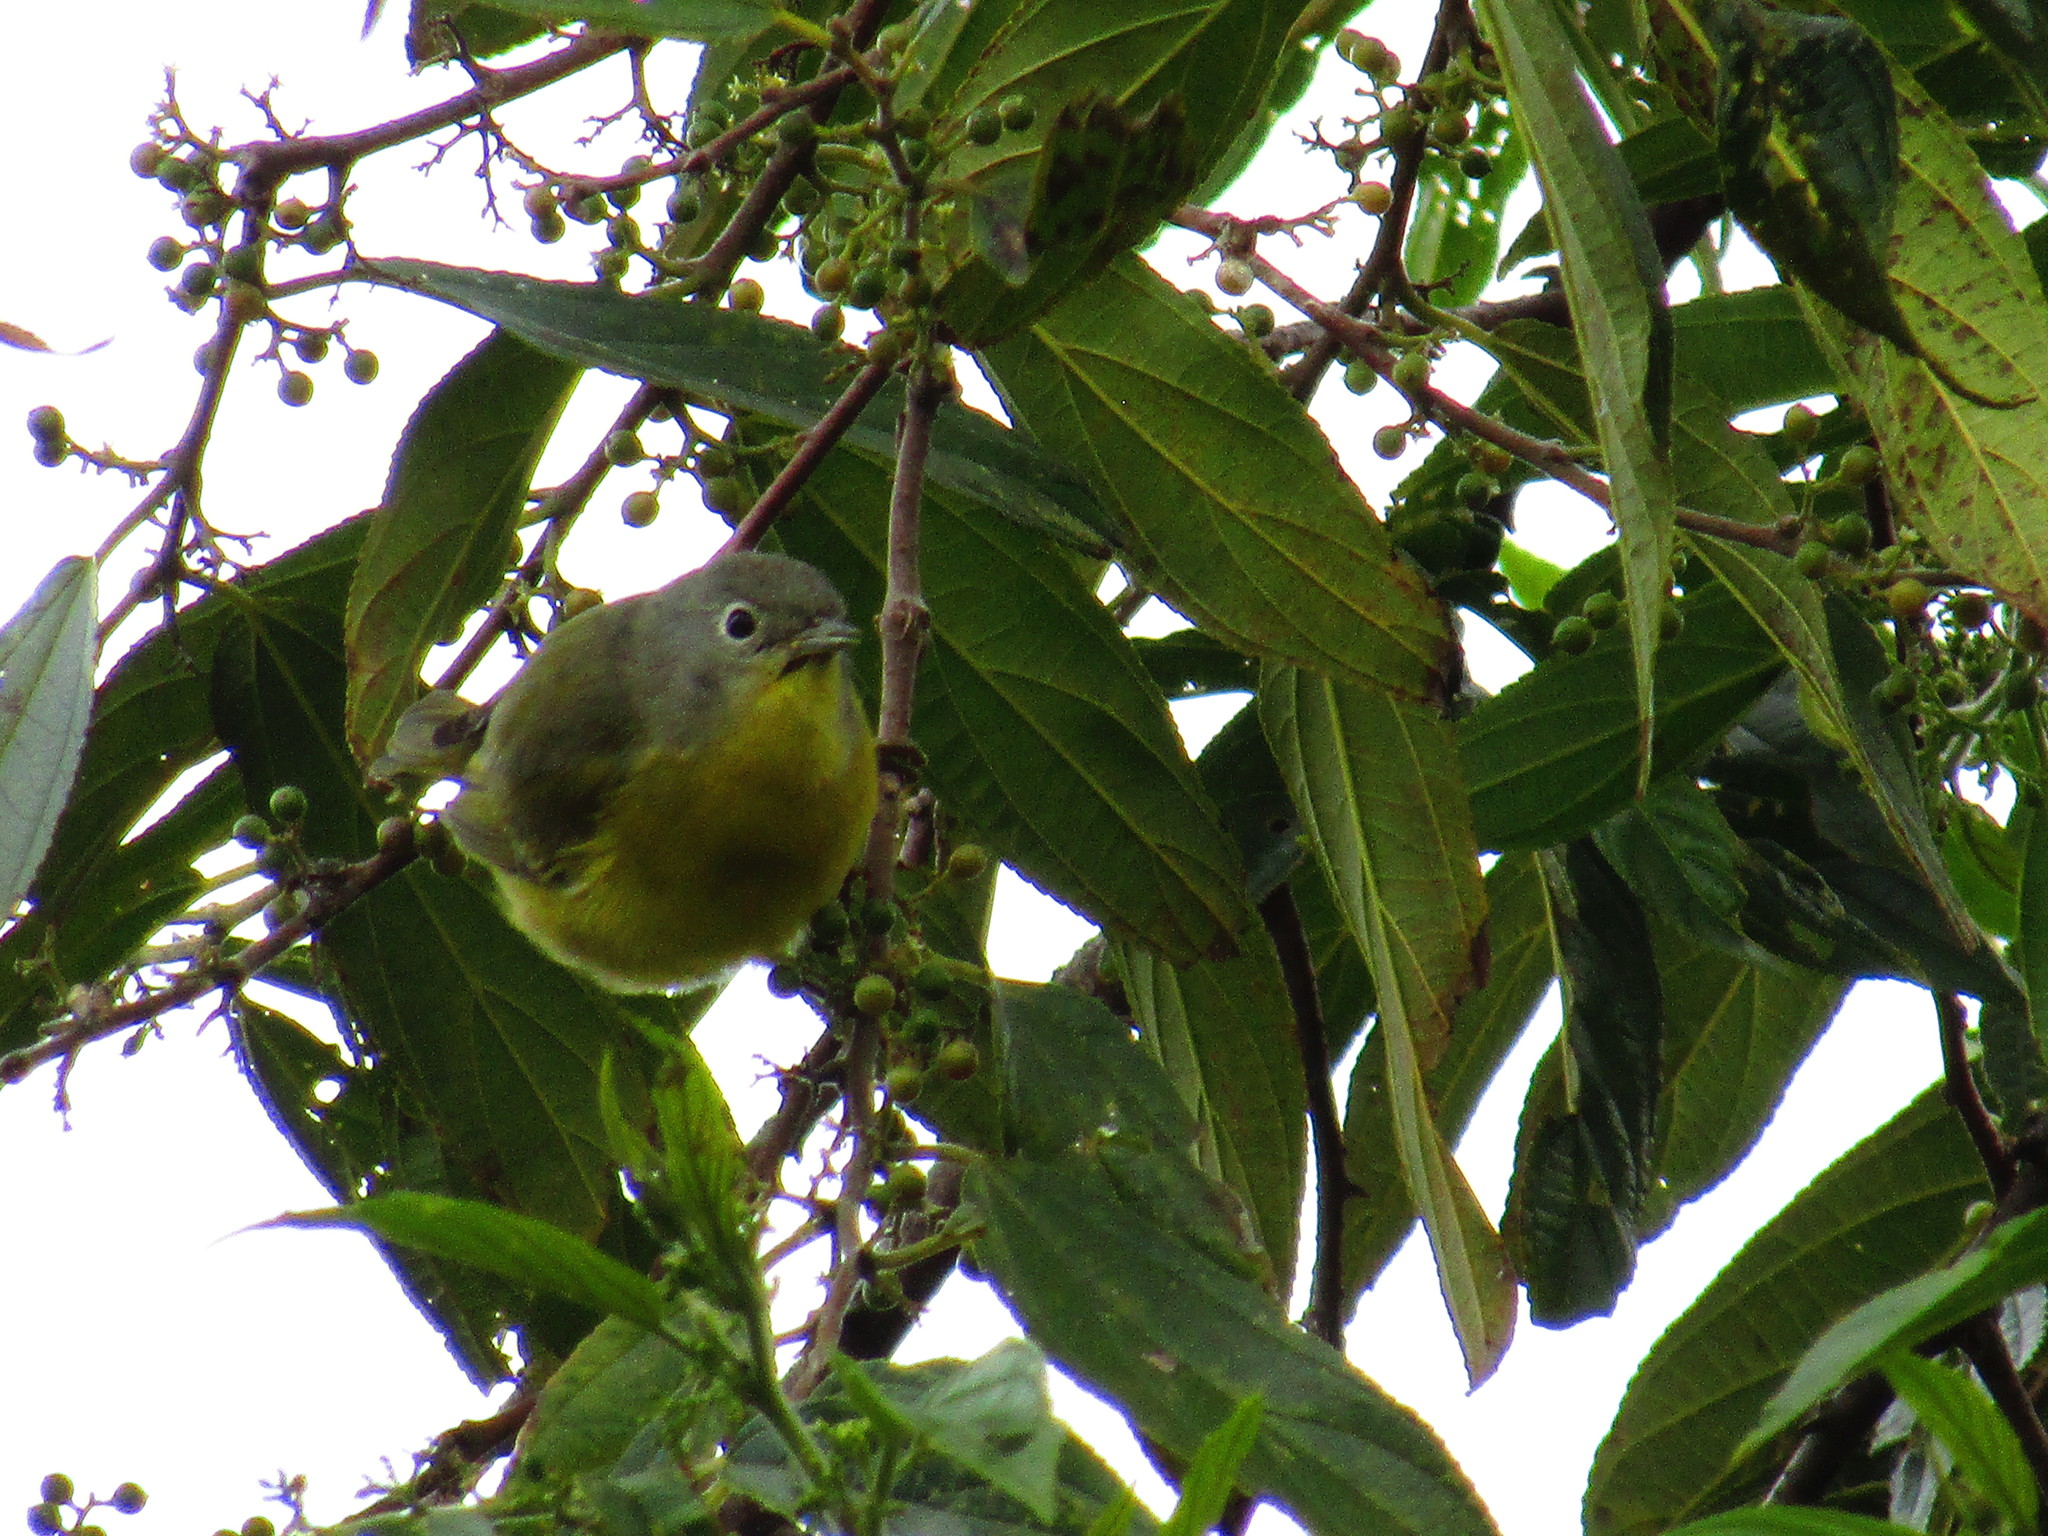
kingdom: Animalia
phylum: Chordata
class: Aves
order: Passeriformes
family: Parulidae
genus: Leiothlypis
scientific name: Leiothlypis ruficapilla
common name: Nashville warbler
